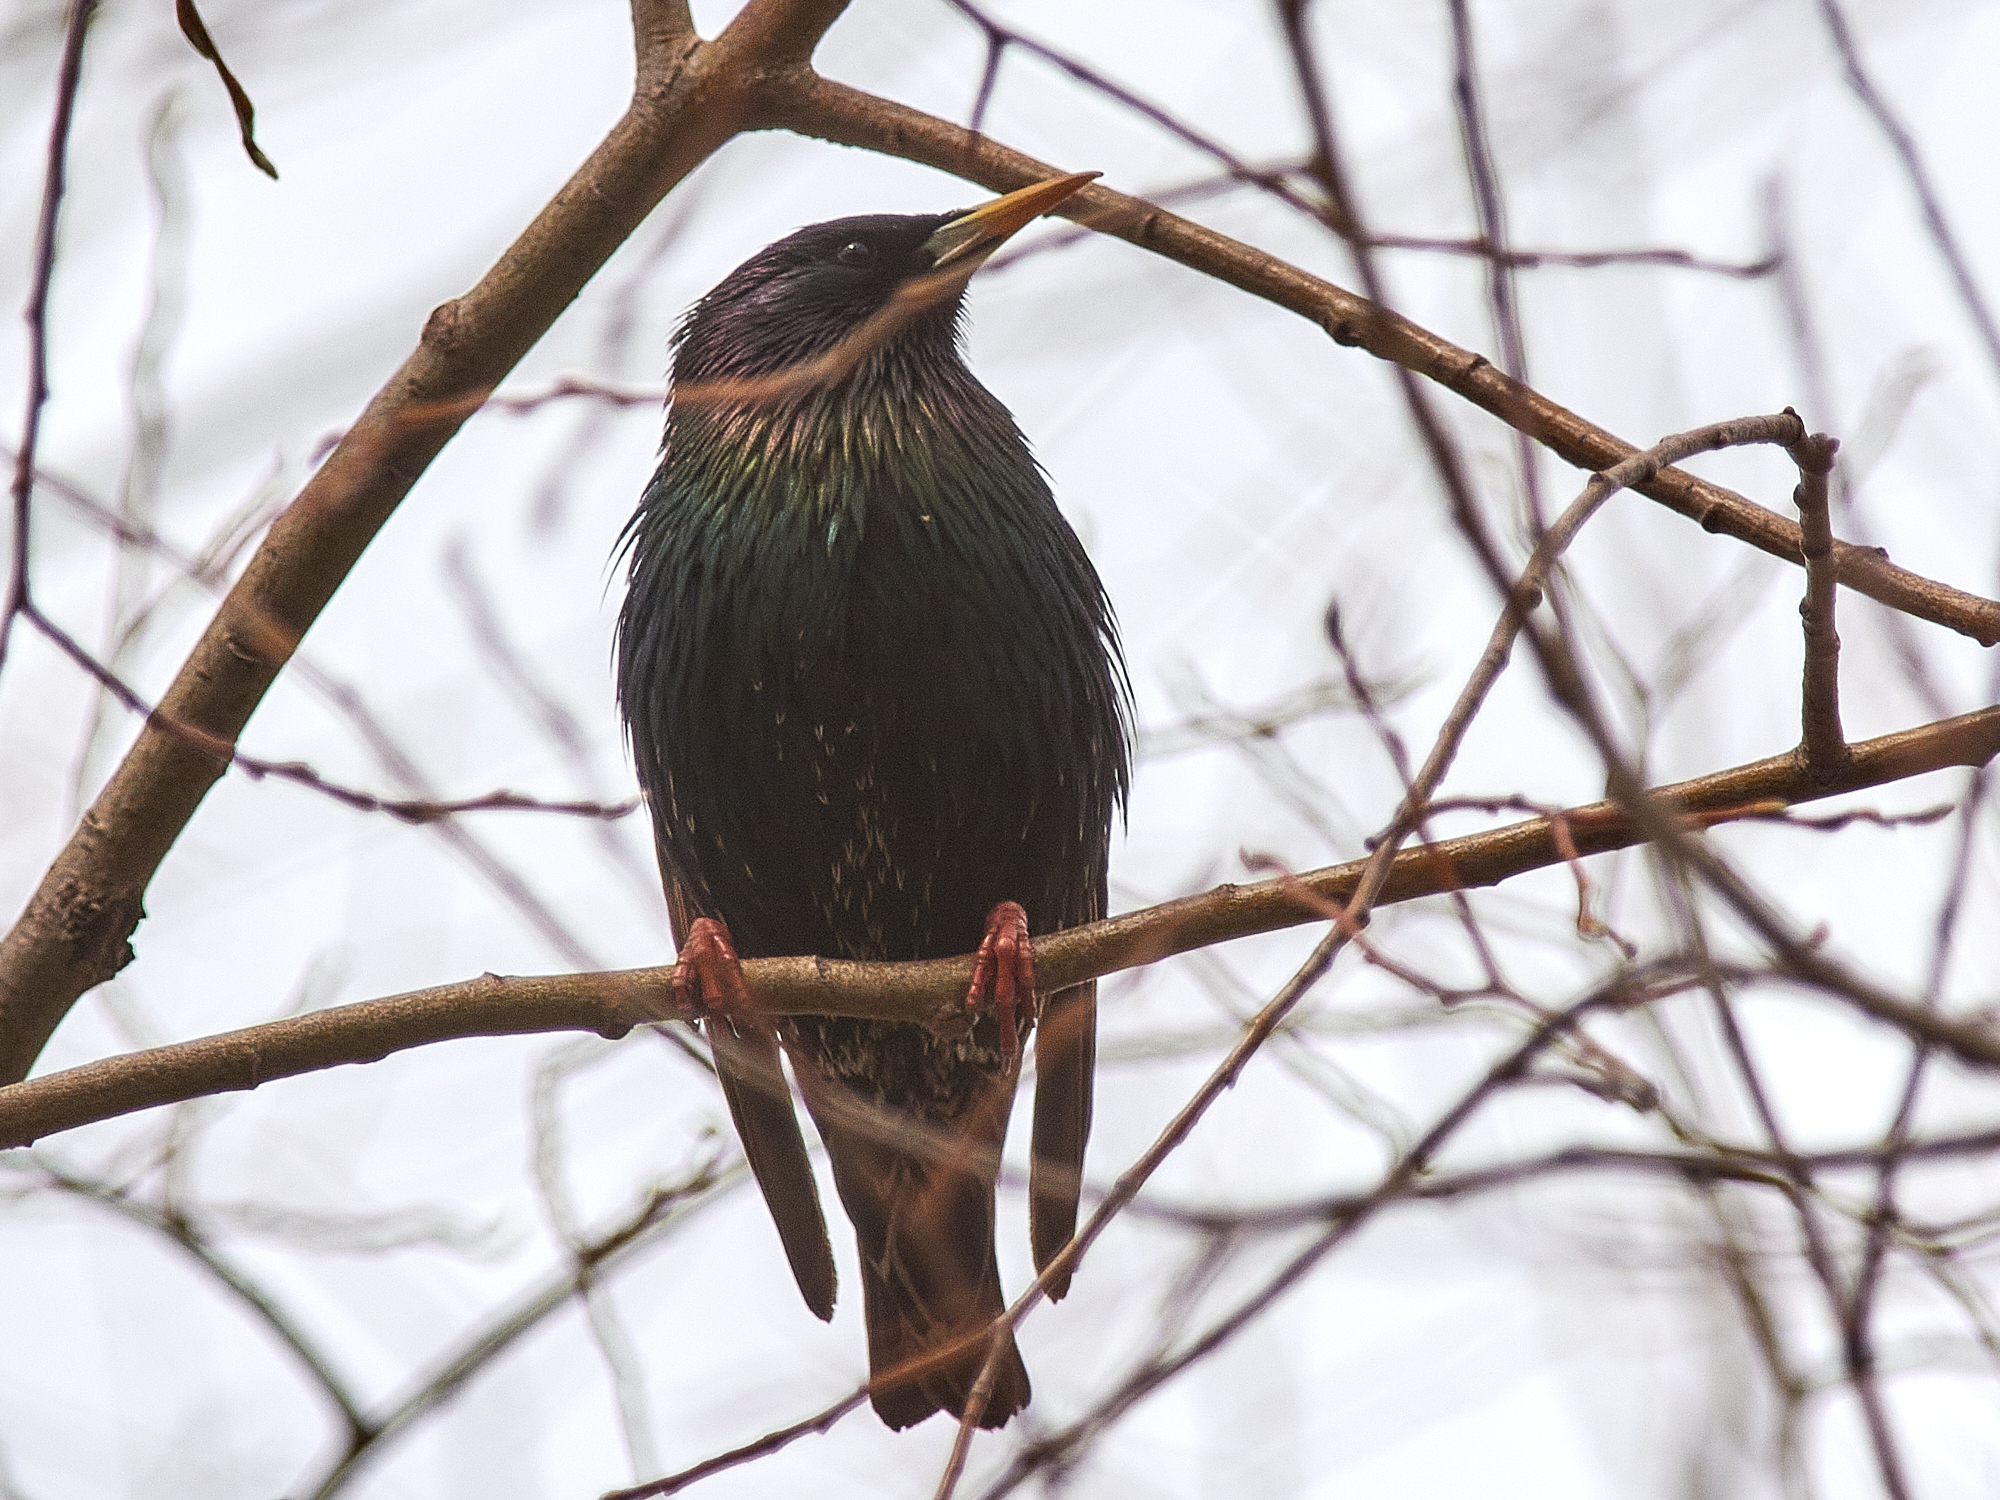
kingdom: Animalia
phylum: Chordata
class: Aves
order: Passeriformes
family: Sturnidae
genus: Sturnus
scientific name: Sturnus vulgaris
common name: Common starling
